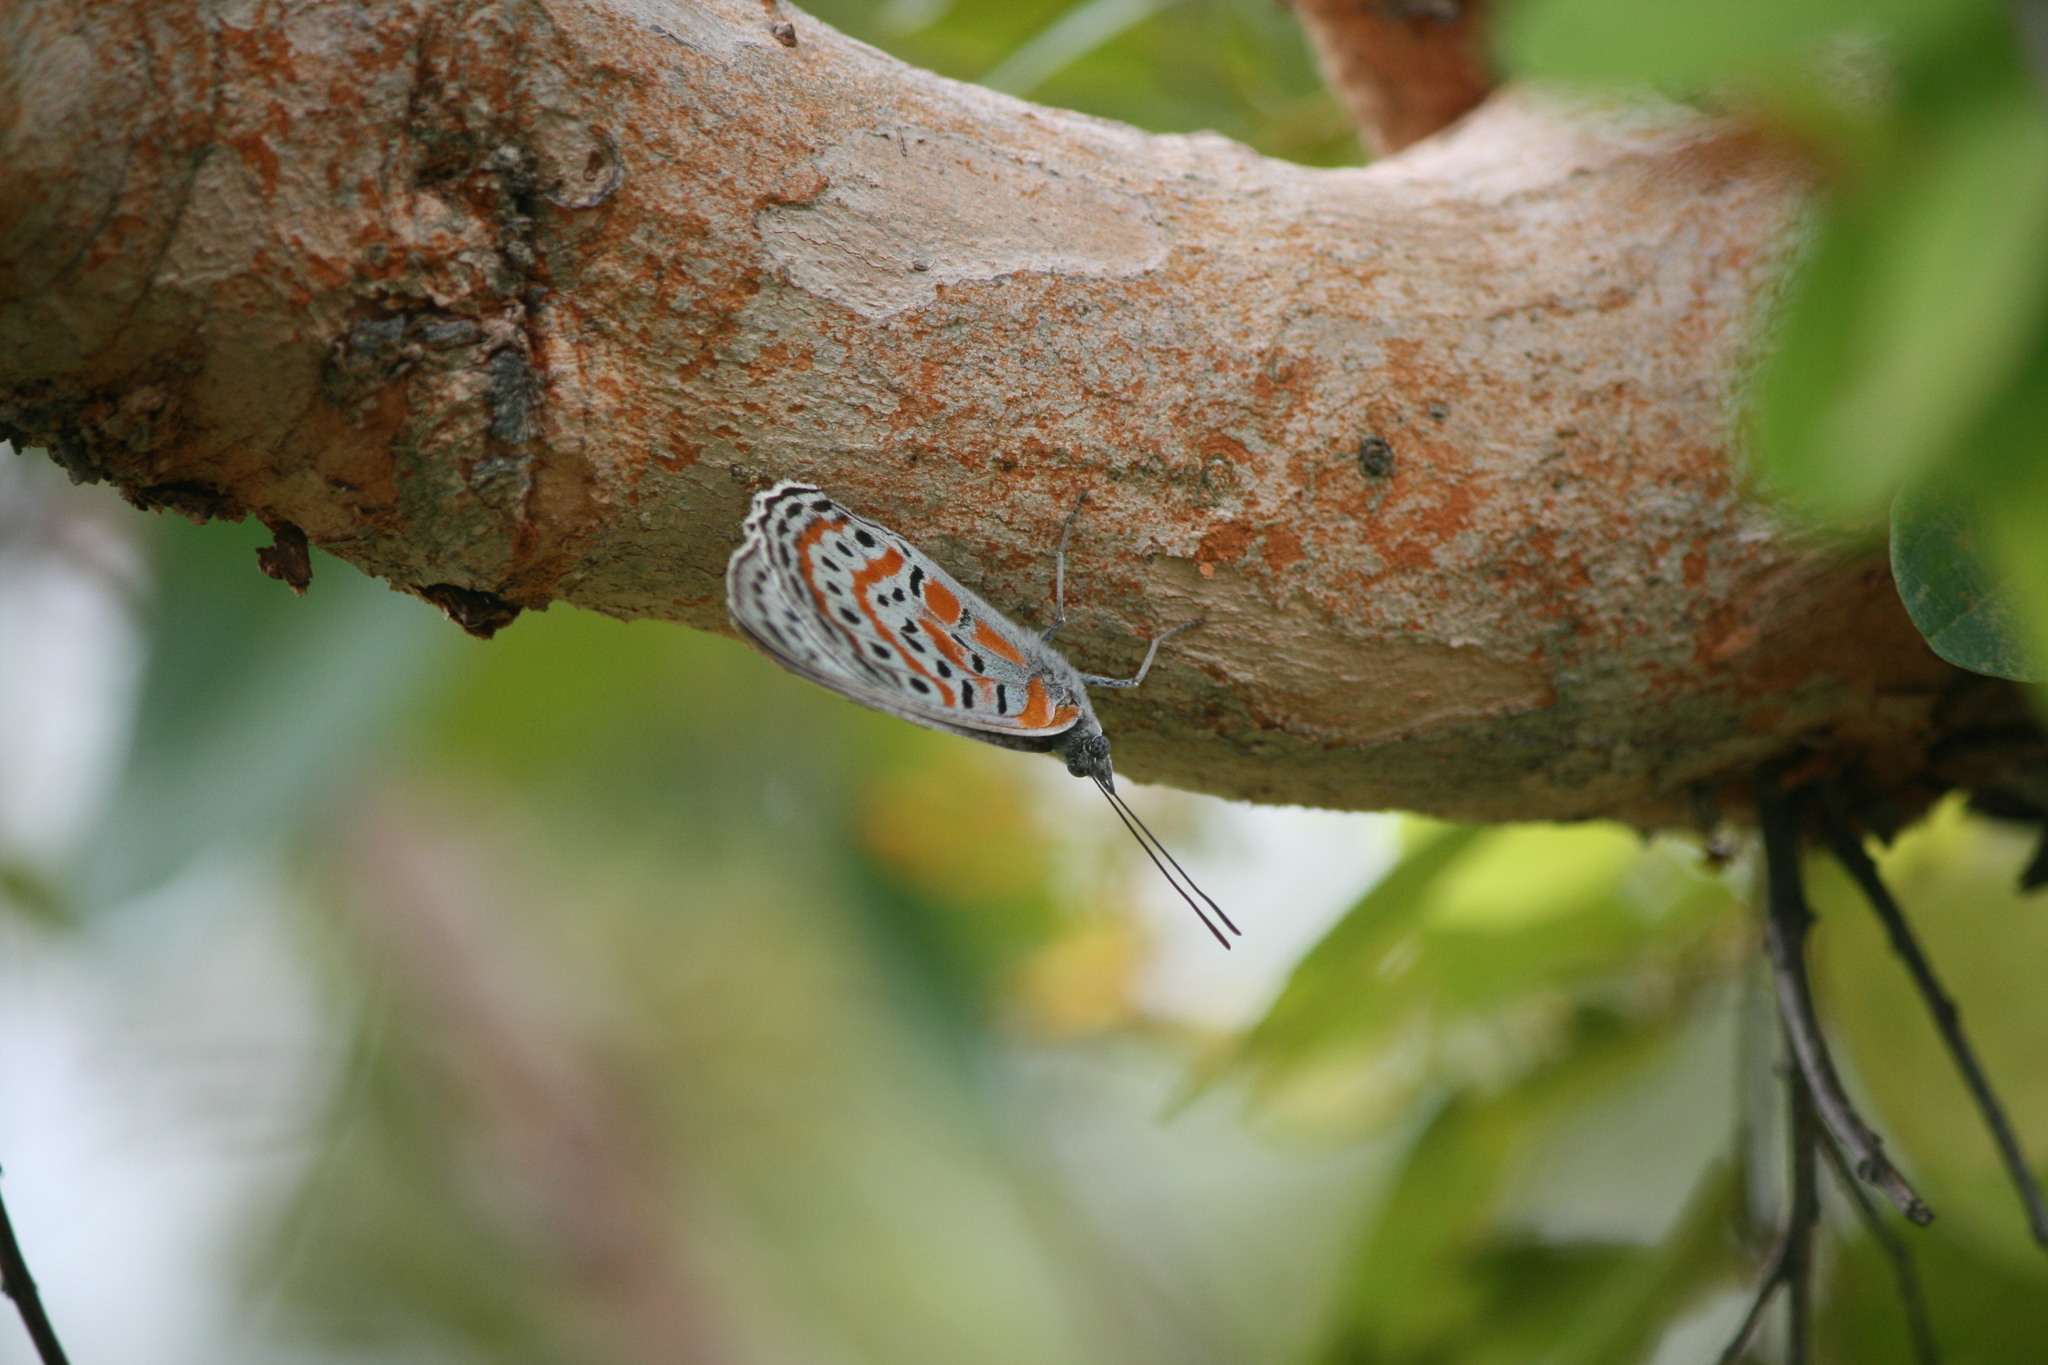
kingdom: Animalia
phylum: Arthropoda
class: Insecta
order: Lepidoptera
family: Nymphalidae
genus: Sevenia
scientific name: Sevenia
